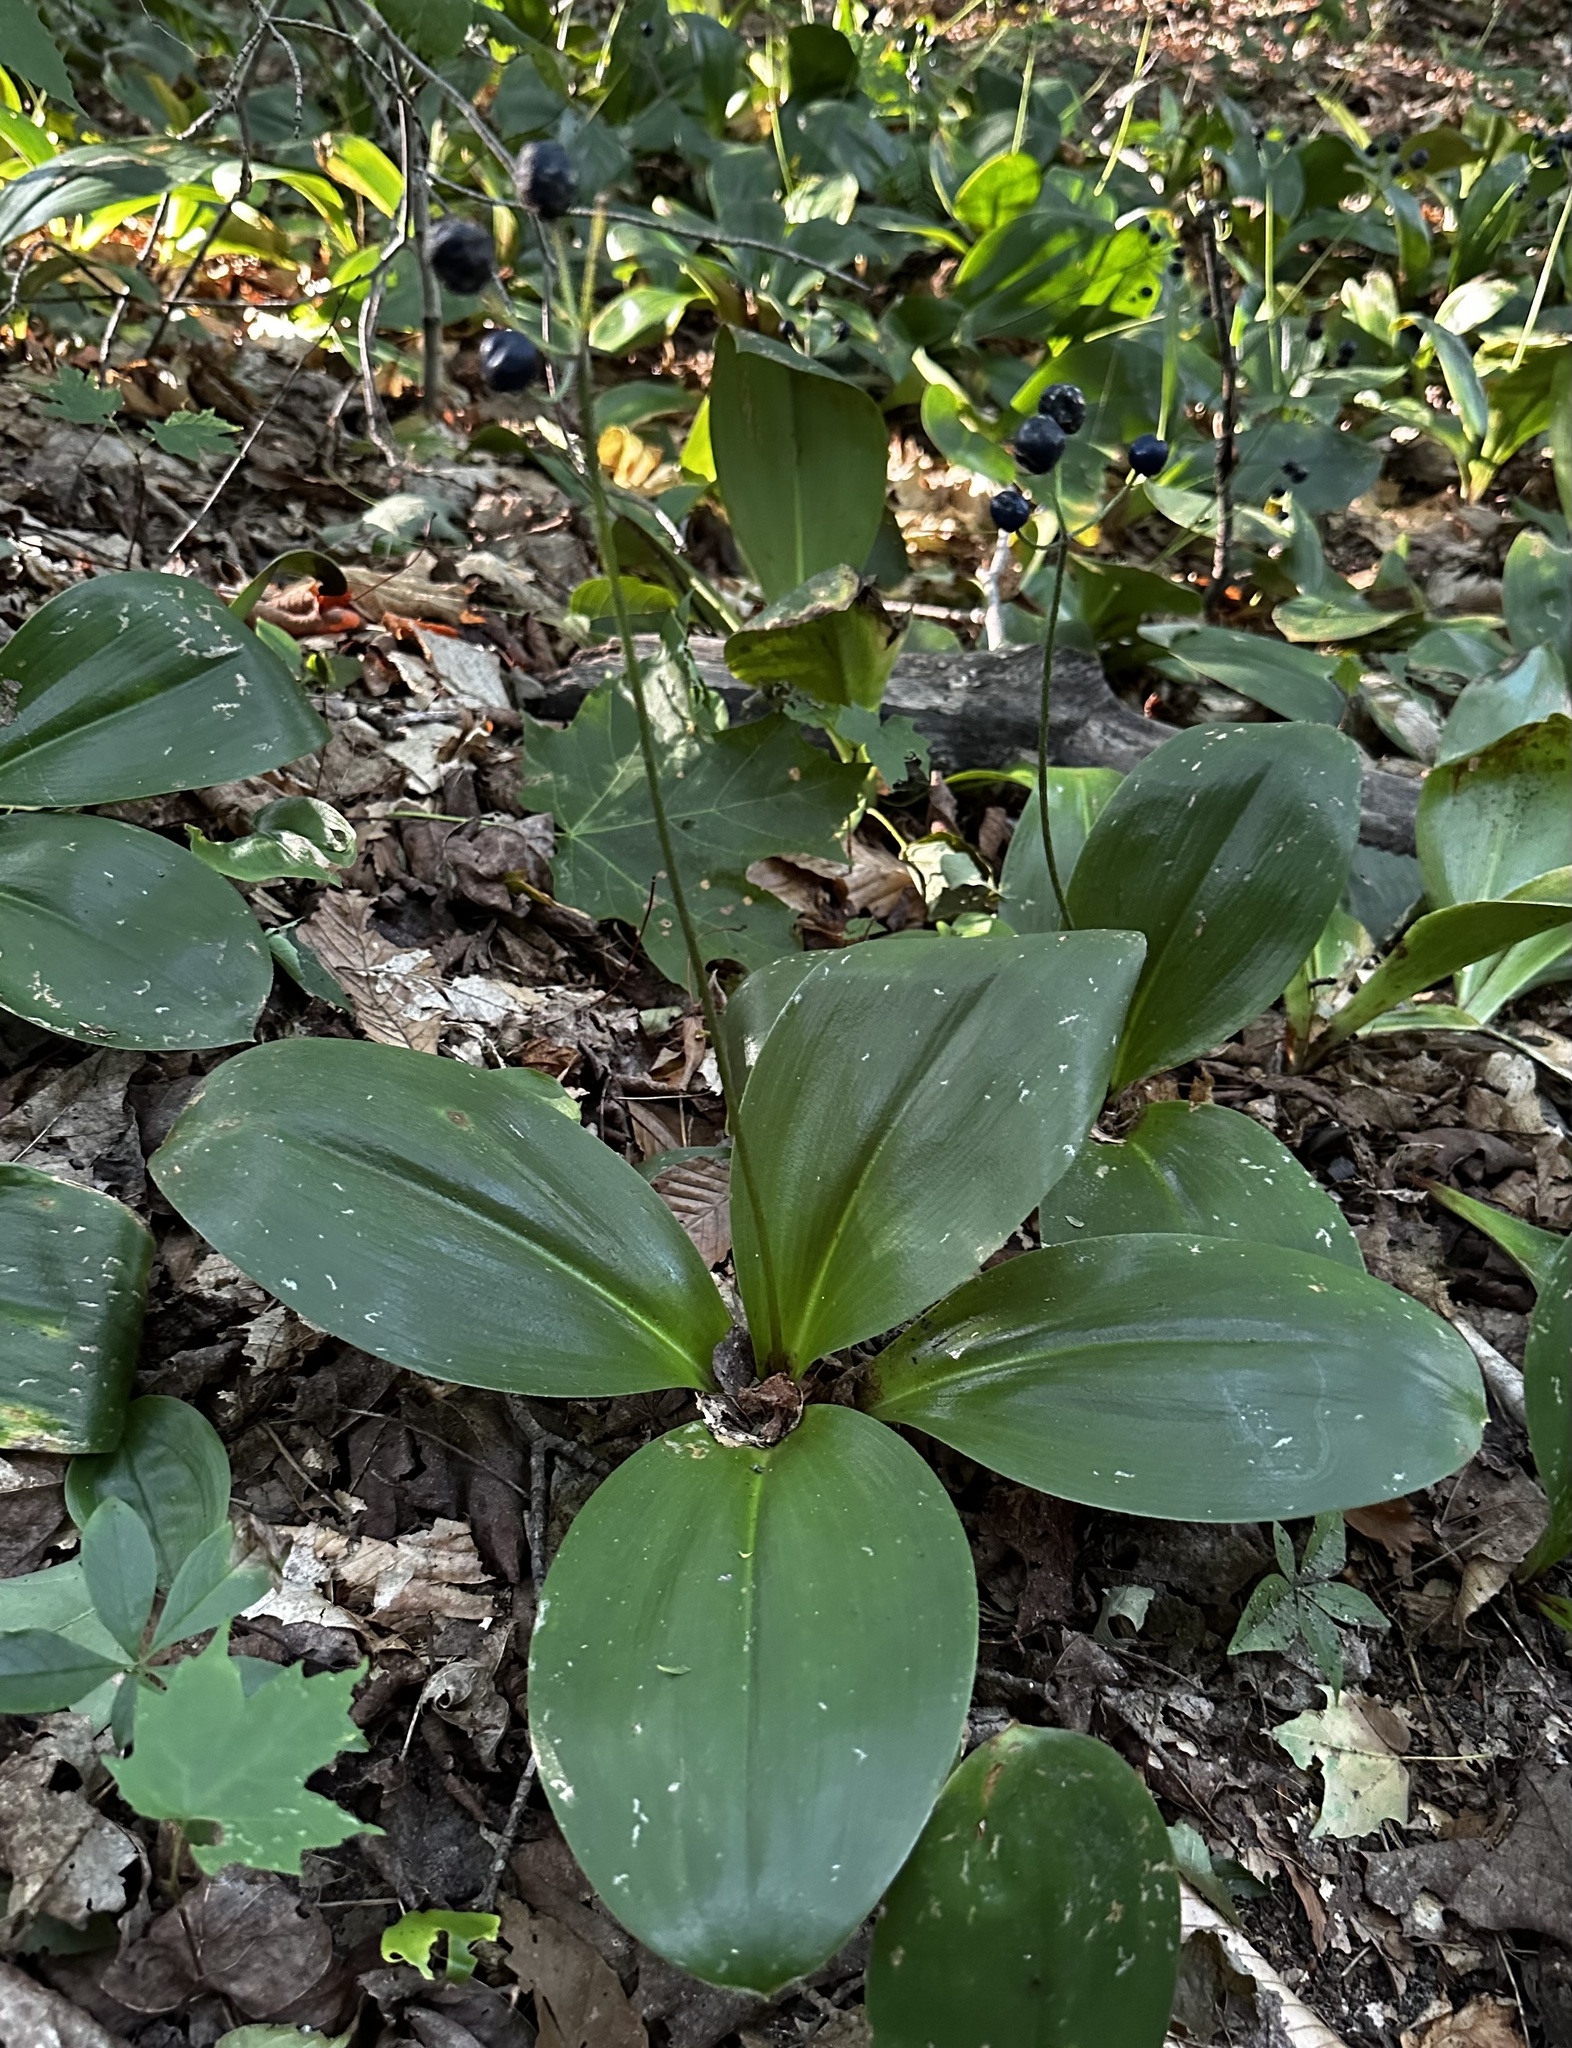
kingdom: Plantae
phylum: Tracheophyta
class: Liliopsida
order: Liliales
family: Liliaceae
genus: Clintonia
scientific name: Clintonia borealis
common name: Yellow clintonia
